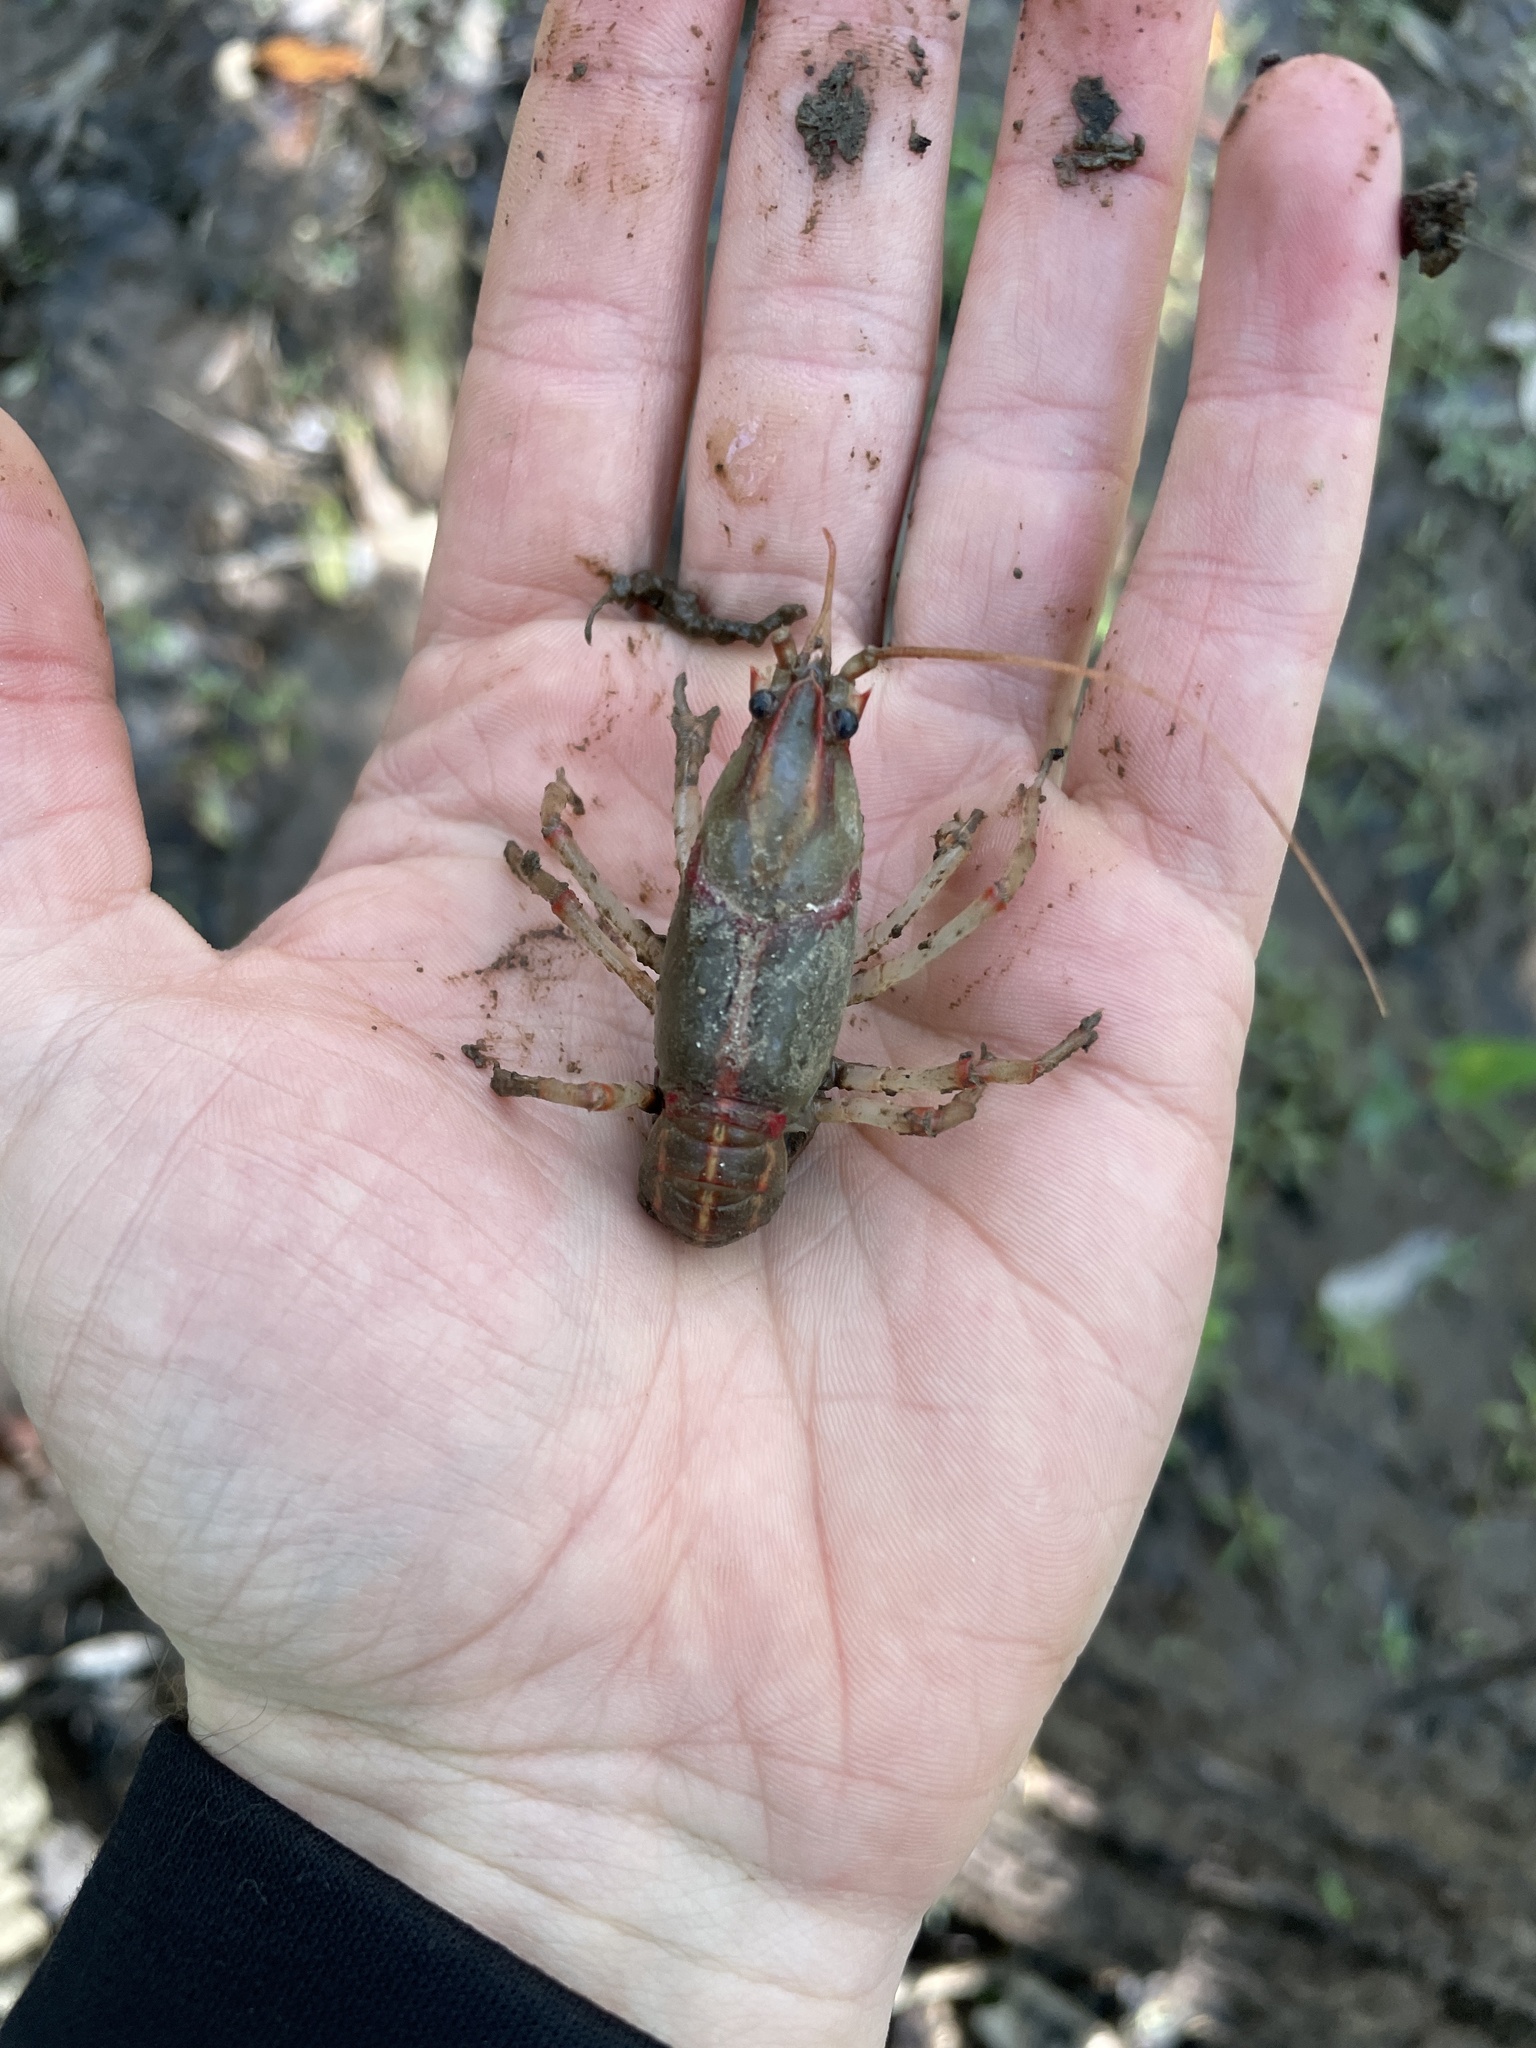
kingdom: Animalia
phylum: Arthropoda
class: Malacostraca
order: Decapoda
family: Cambaridae
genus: Lacunicambarus
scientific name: Lacunicambarus ludovicianus
